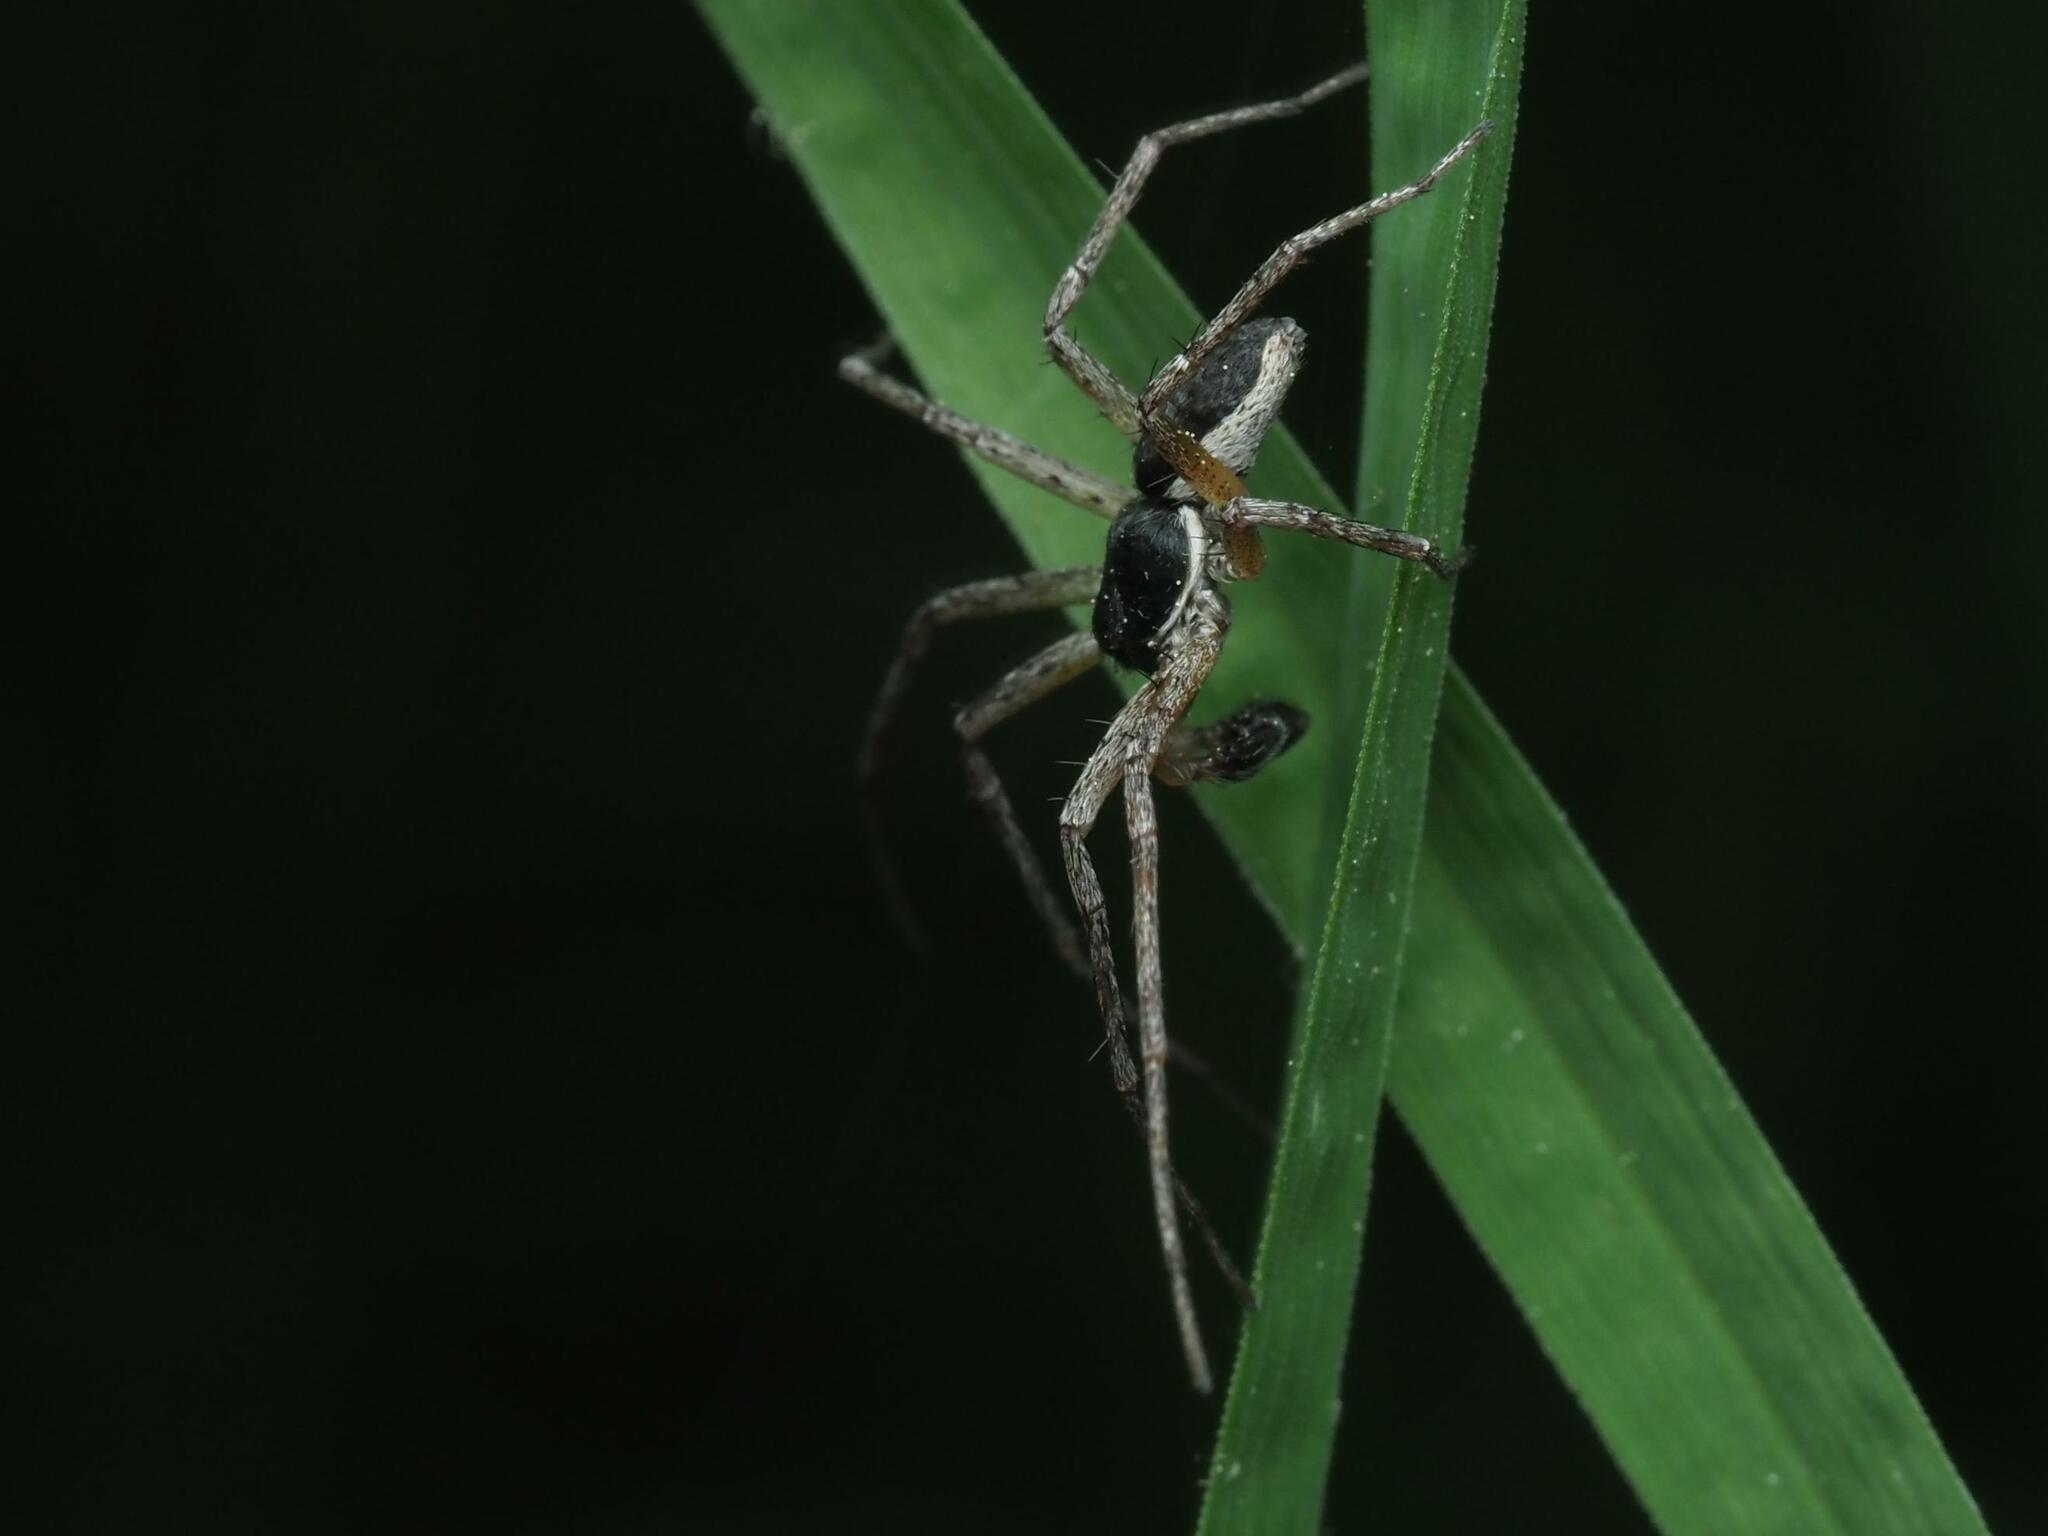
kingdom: Animalia
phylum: Arthropoda
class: Arachnida
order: Araneae
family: Philodromidae
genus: Philodromus
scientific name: Philodromus dispar
